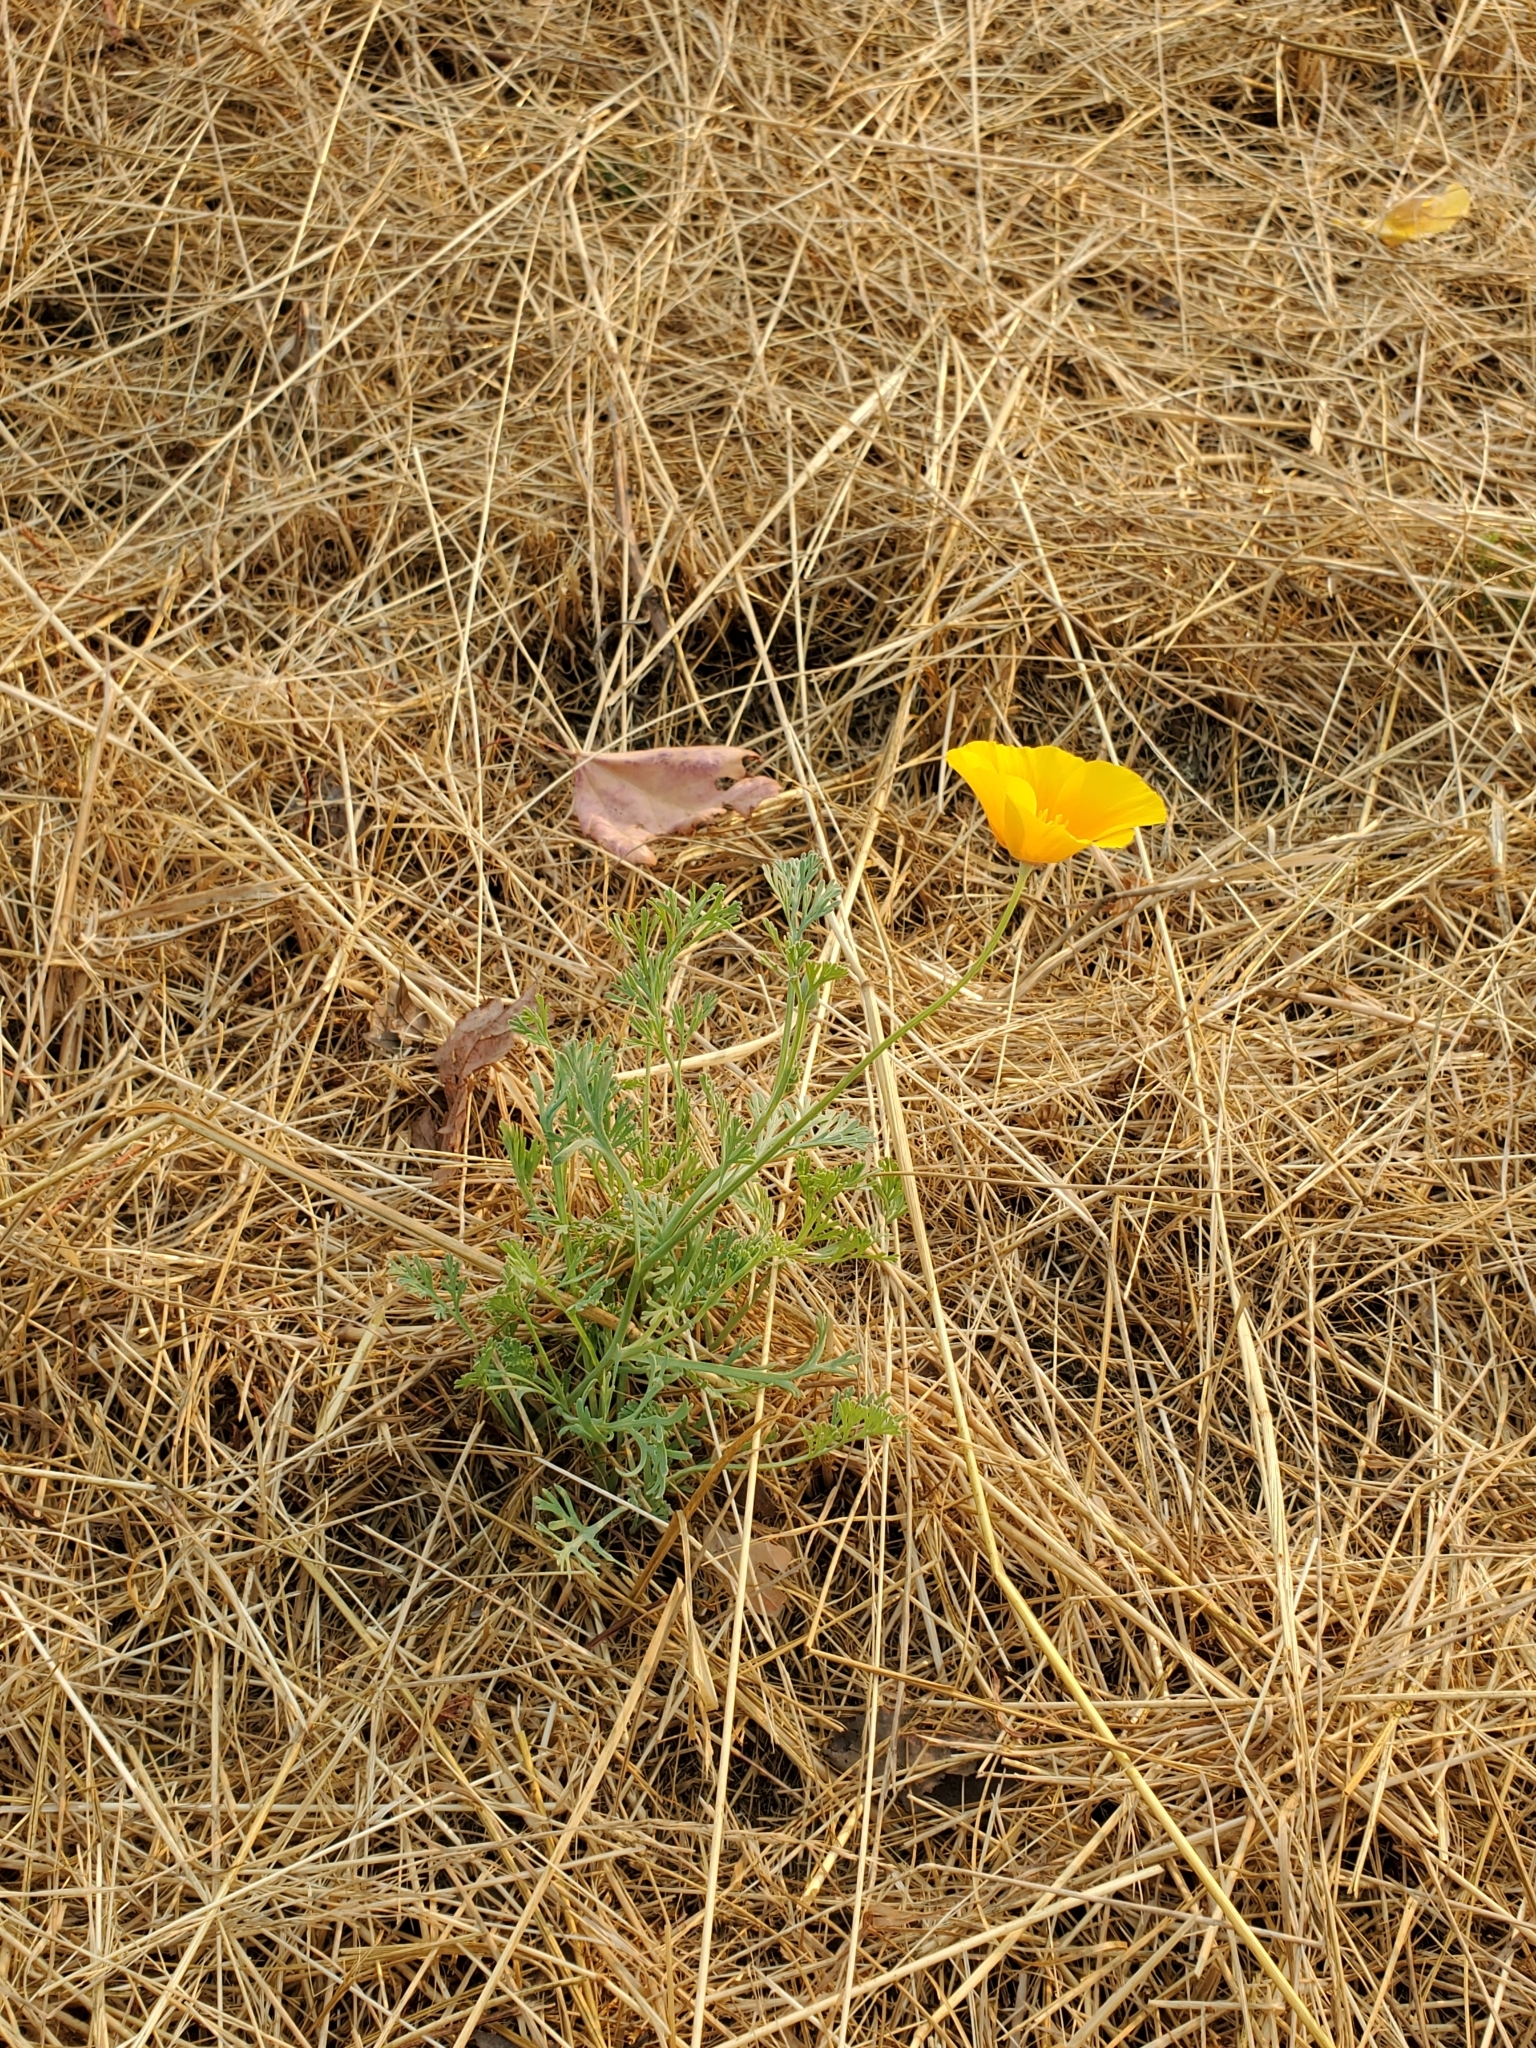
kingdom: Plantae
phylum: Tracheophyta
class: Magnoliopsida
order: Ranunculales
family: Papaveraceae
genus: Eschscholzia
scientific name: Eschscholzia californica
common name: California poppy
